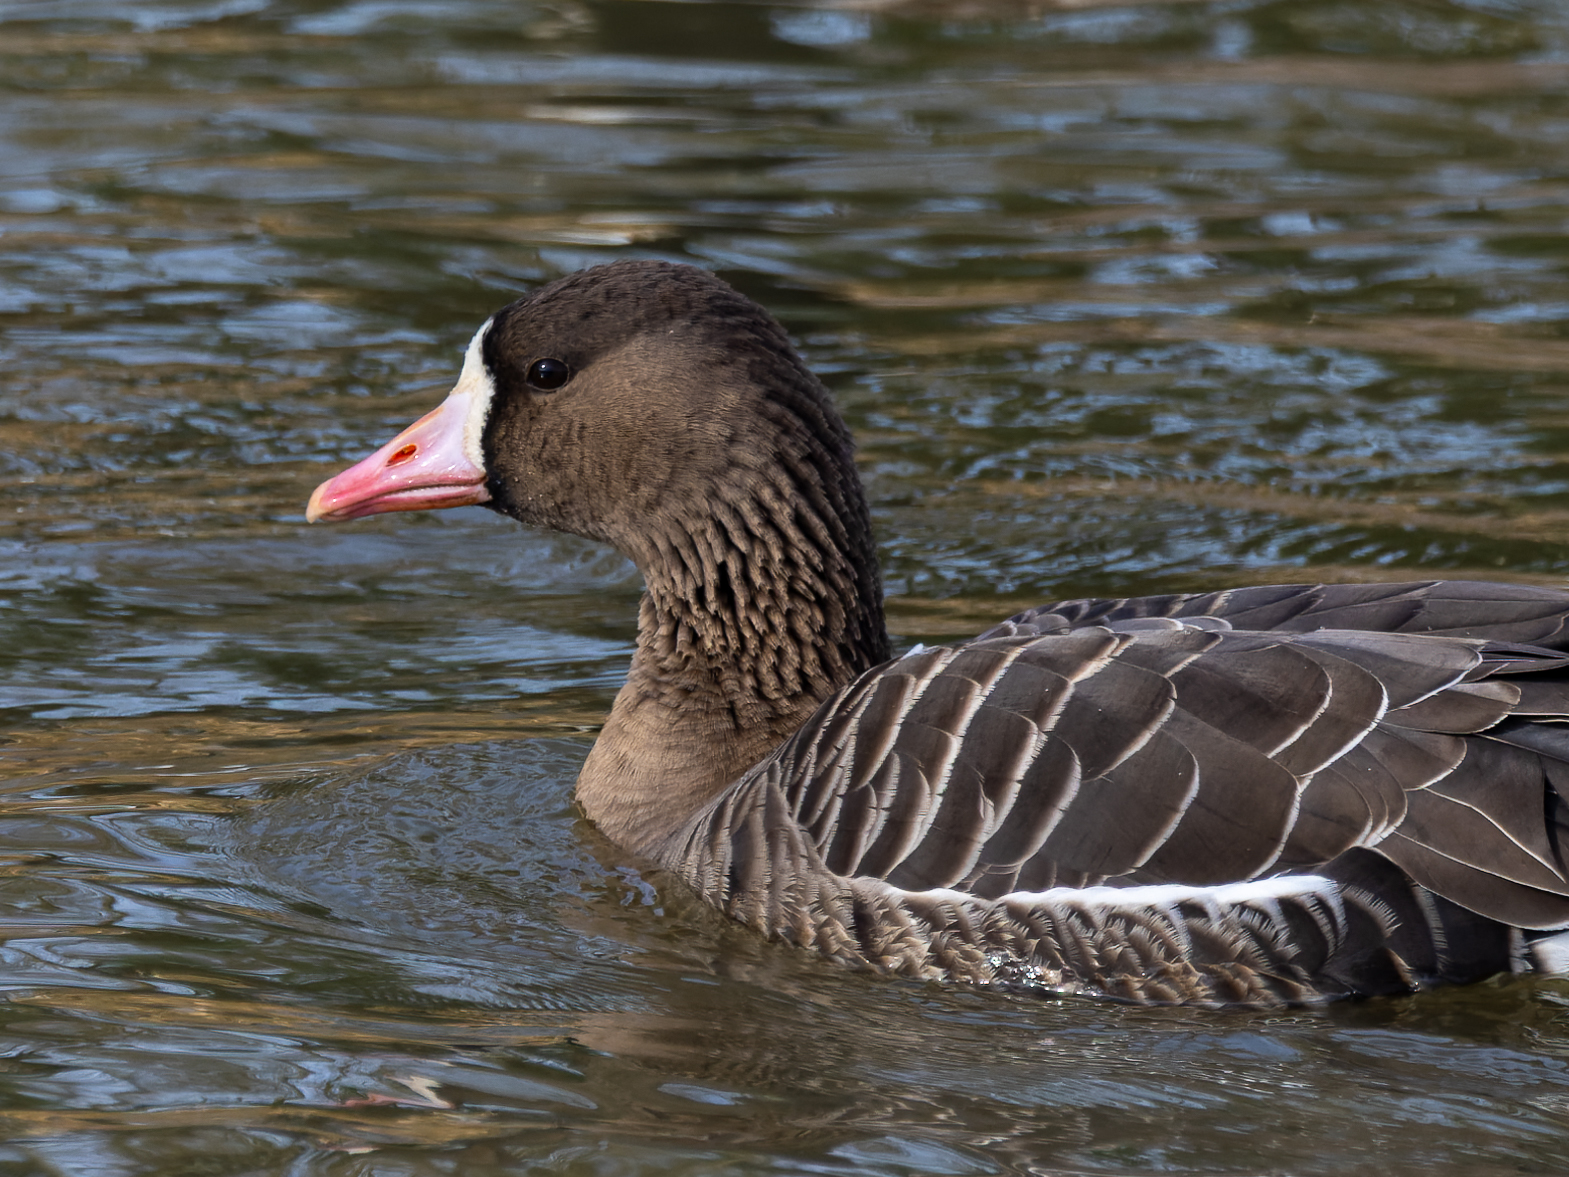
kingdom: Animalia
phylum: Chordata
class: Aves
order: Anseriformes
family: Anatidae
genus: Anser
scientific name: Anser albifrons
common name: Greater white-fronted goose
